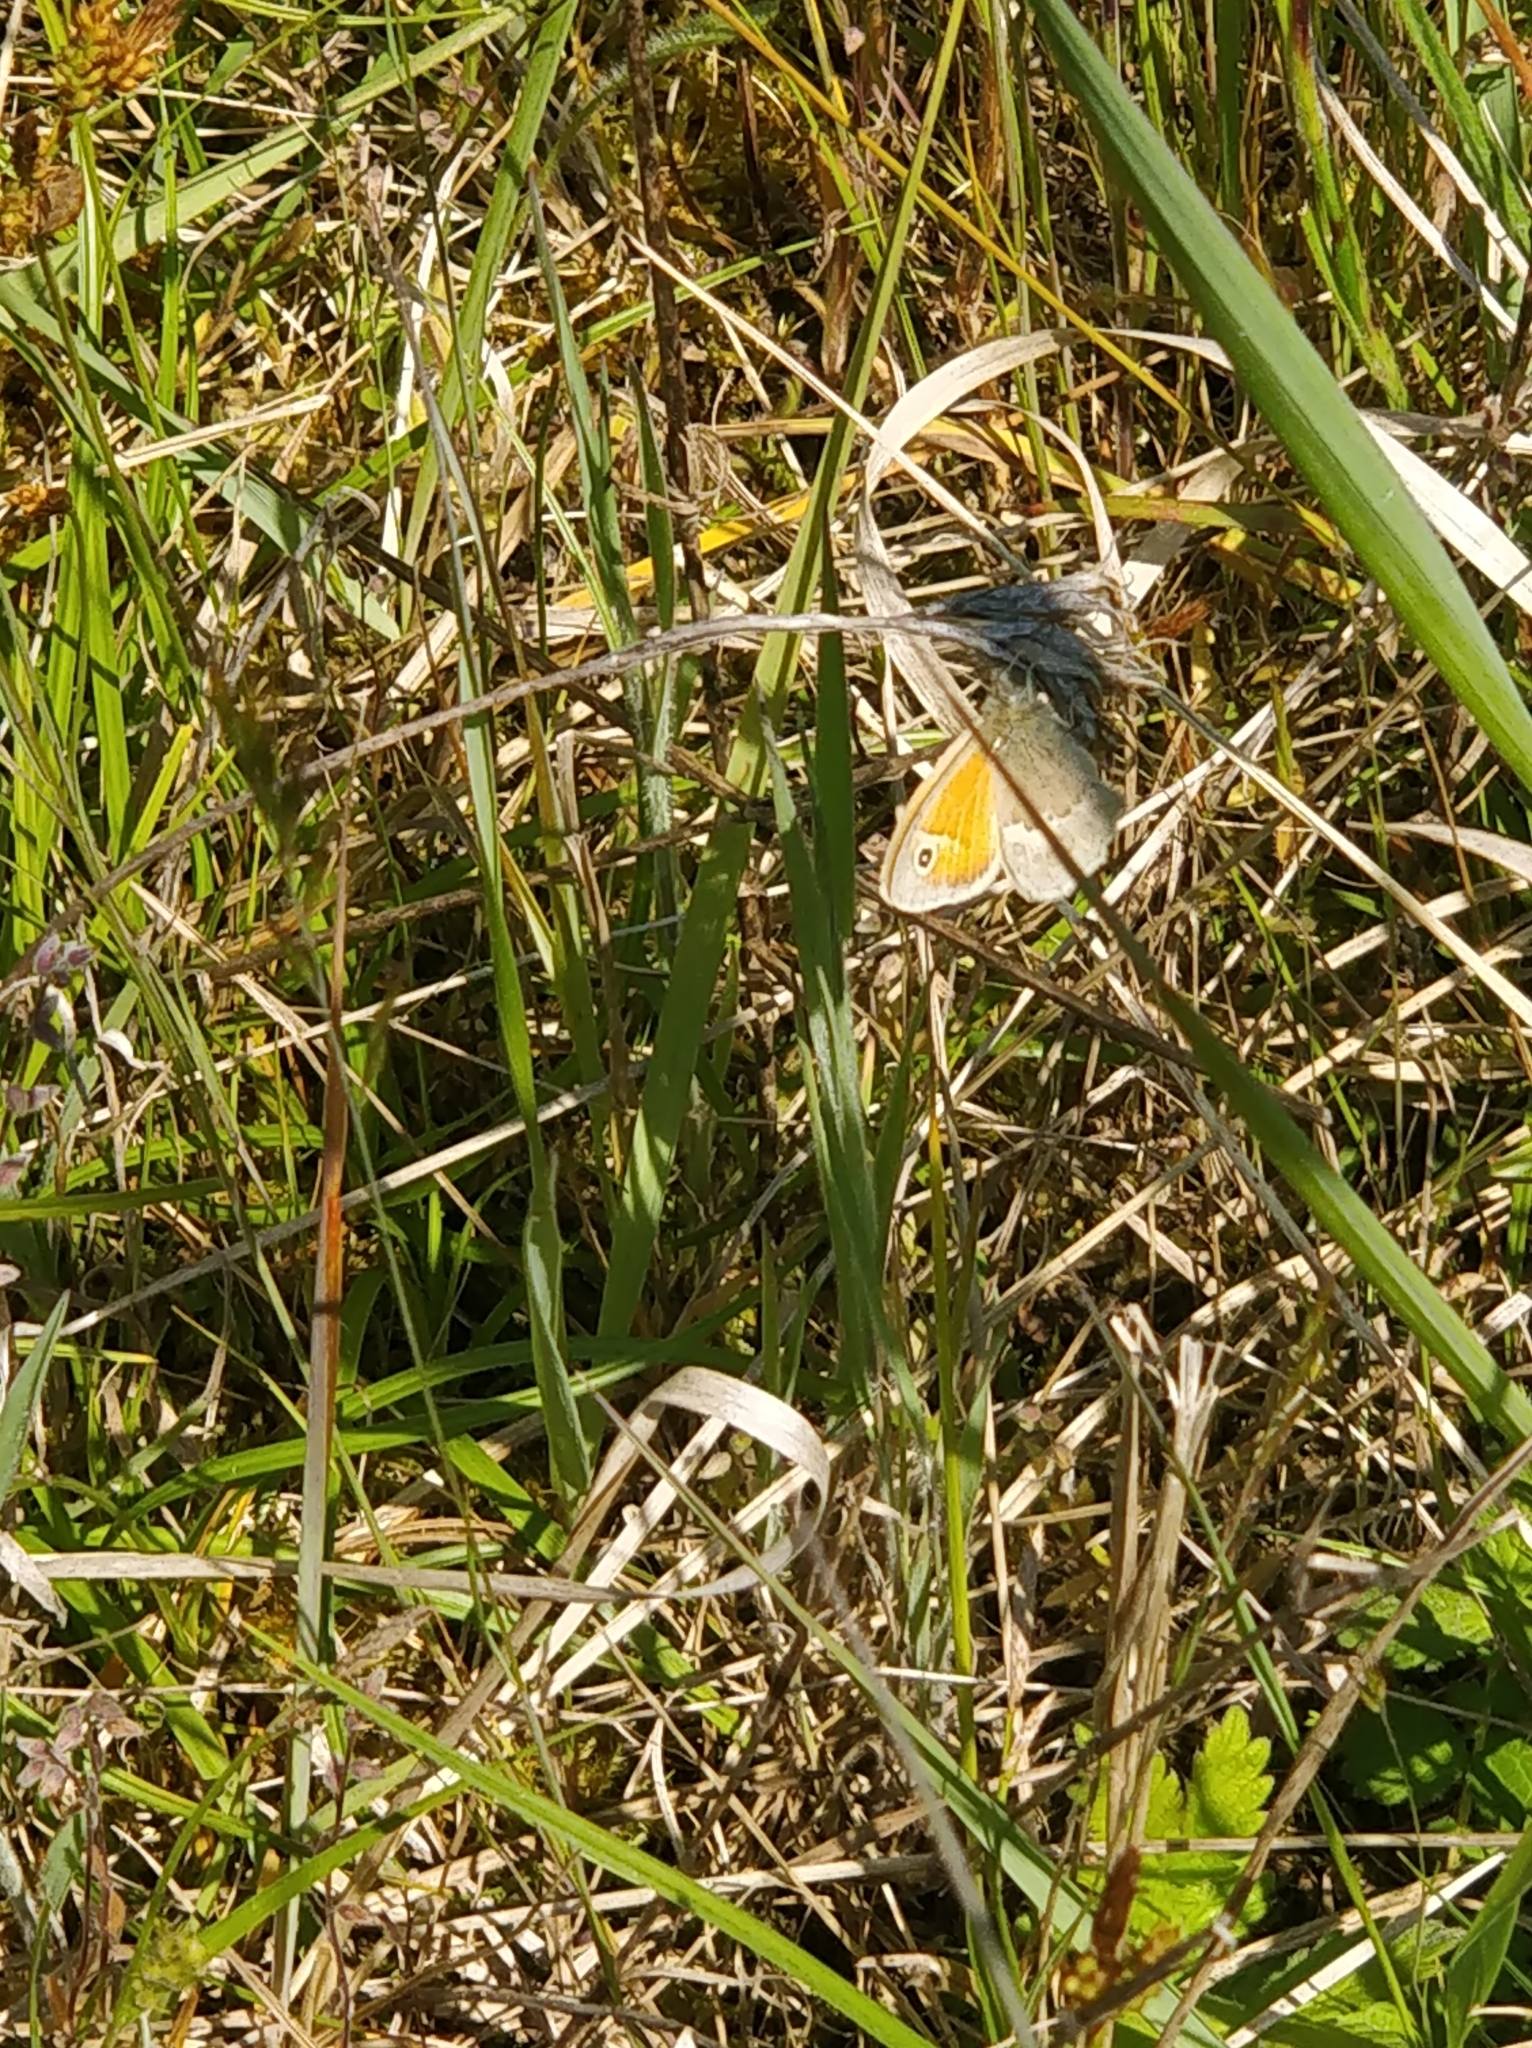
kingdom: Animalia
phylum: Arthropoda
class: Insecta
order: Lepidoptera
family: Nymphalidae
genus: Coenonympha
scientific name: Coenonympha pamphilus
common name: Small heath
